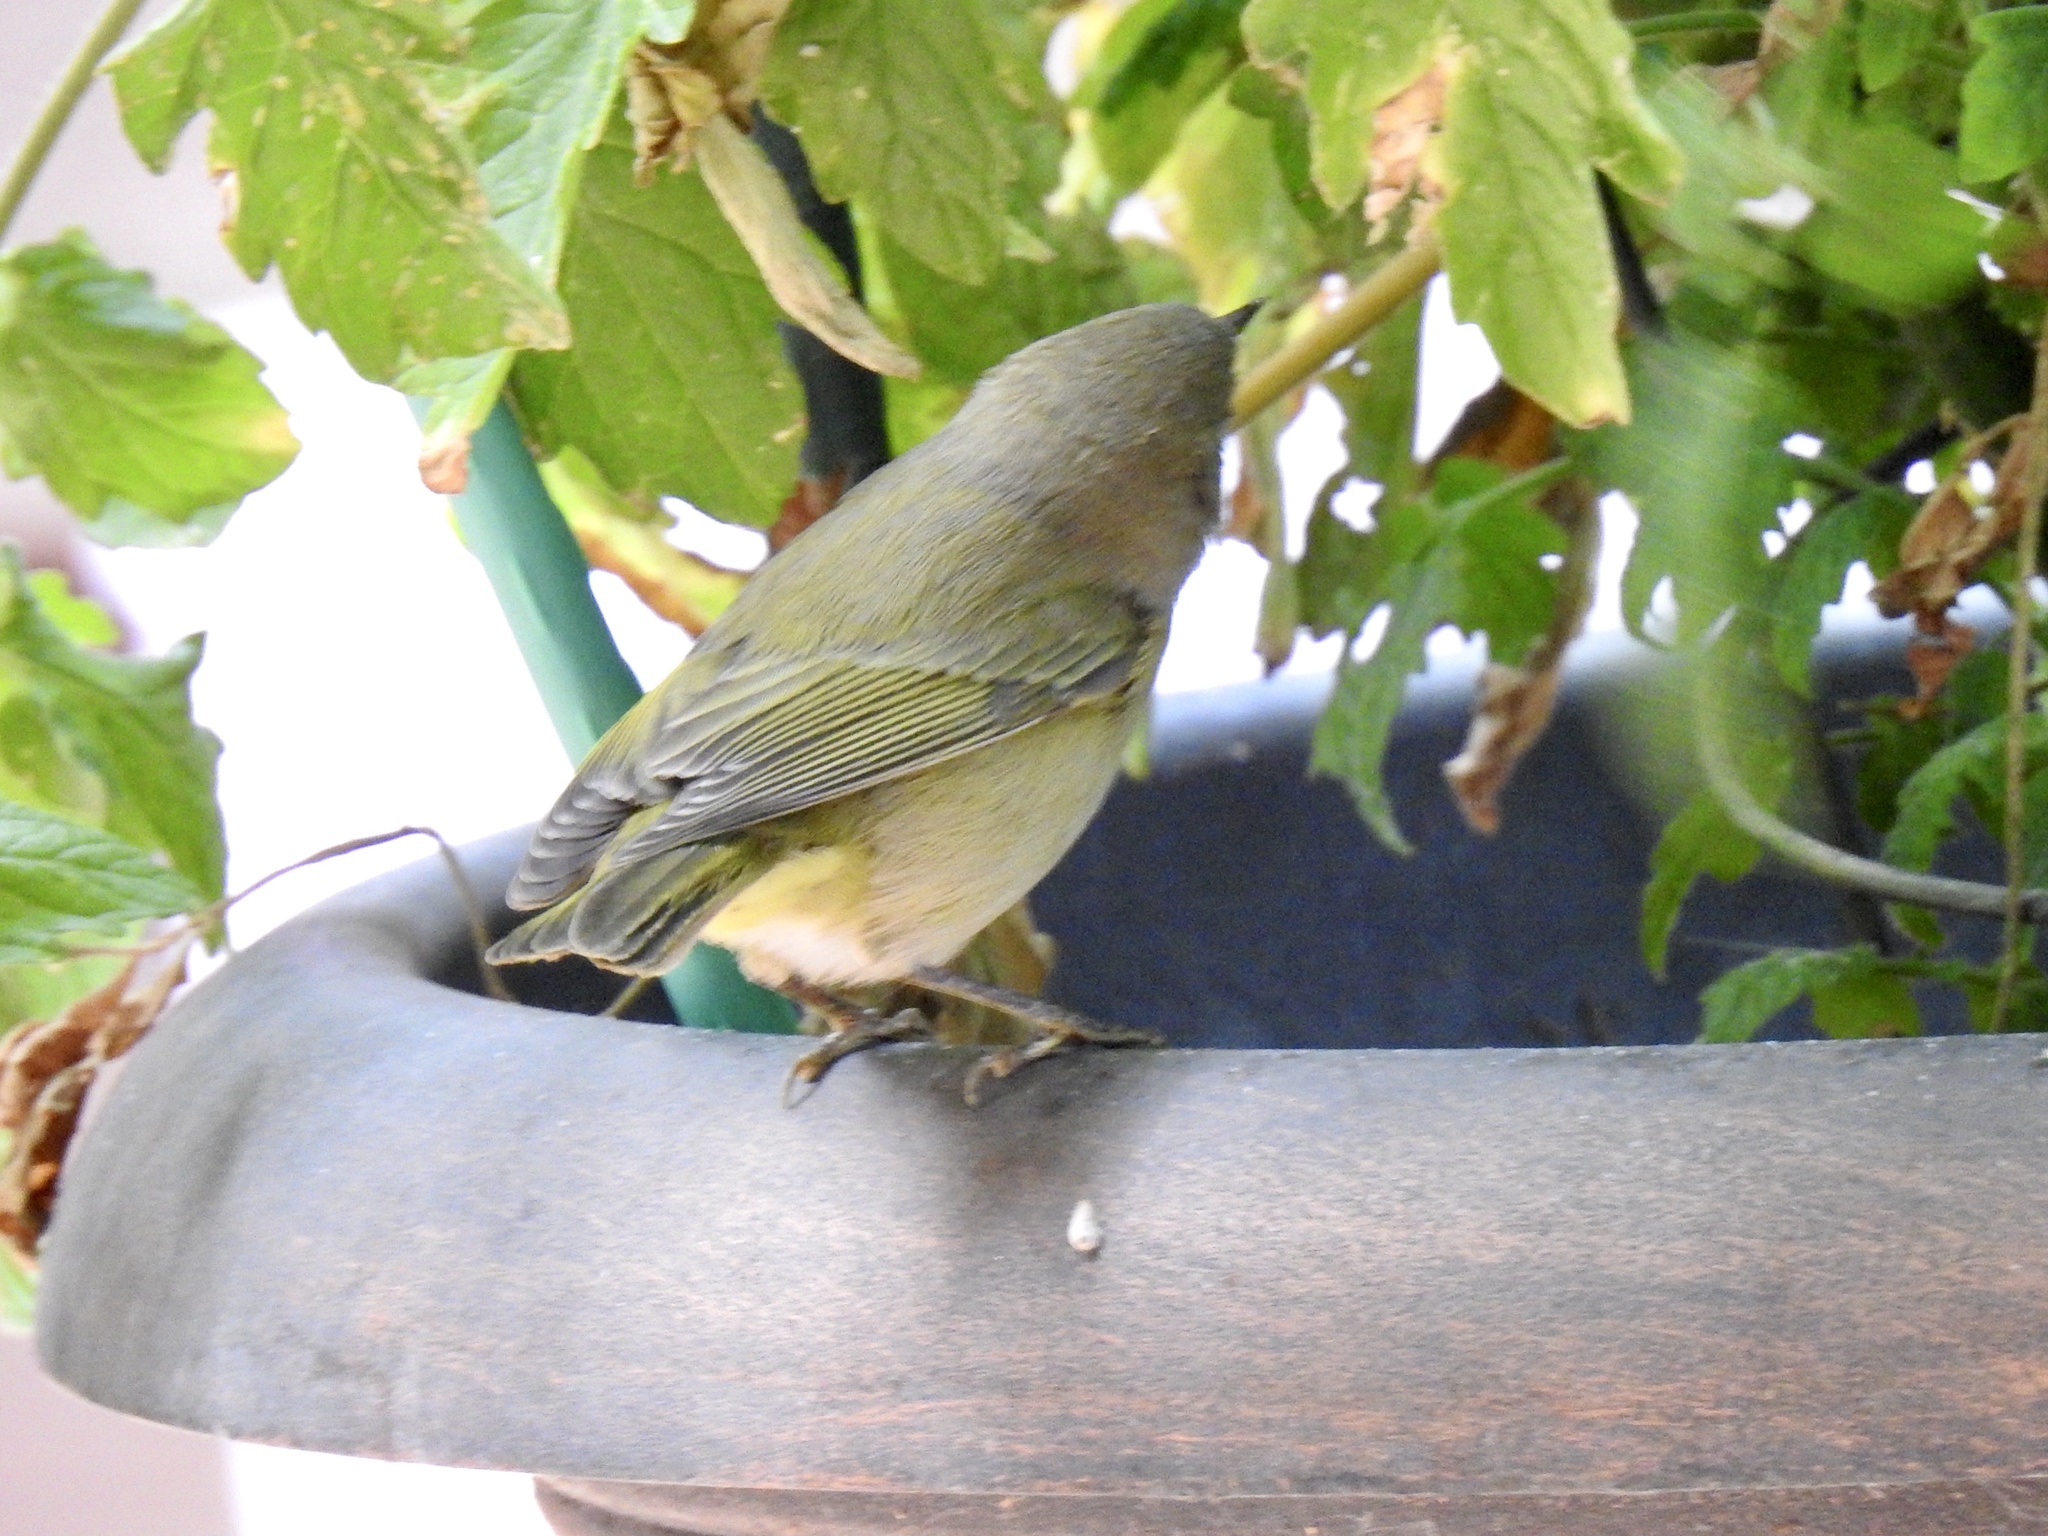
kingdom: Animalia
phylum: Chordata
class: Aves
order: Passeriformes
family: Parulidae
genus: Leiothlypis
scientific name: Leiothlypis celata
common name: Orange-crowned warbler
